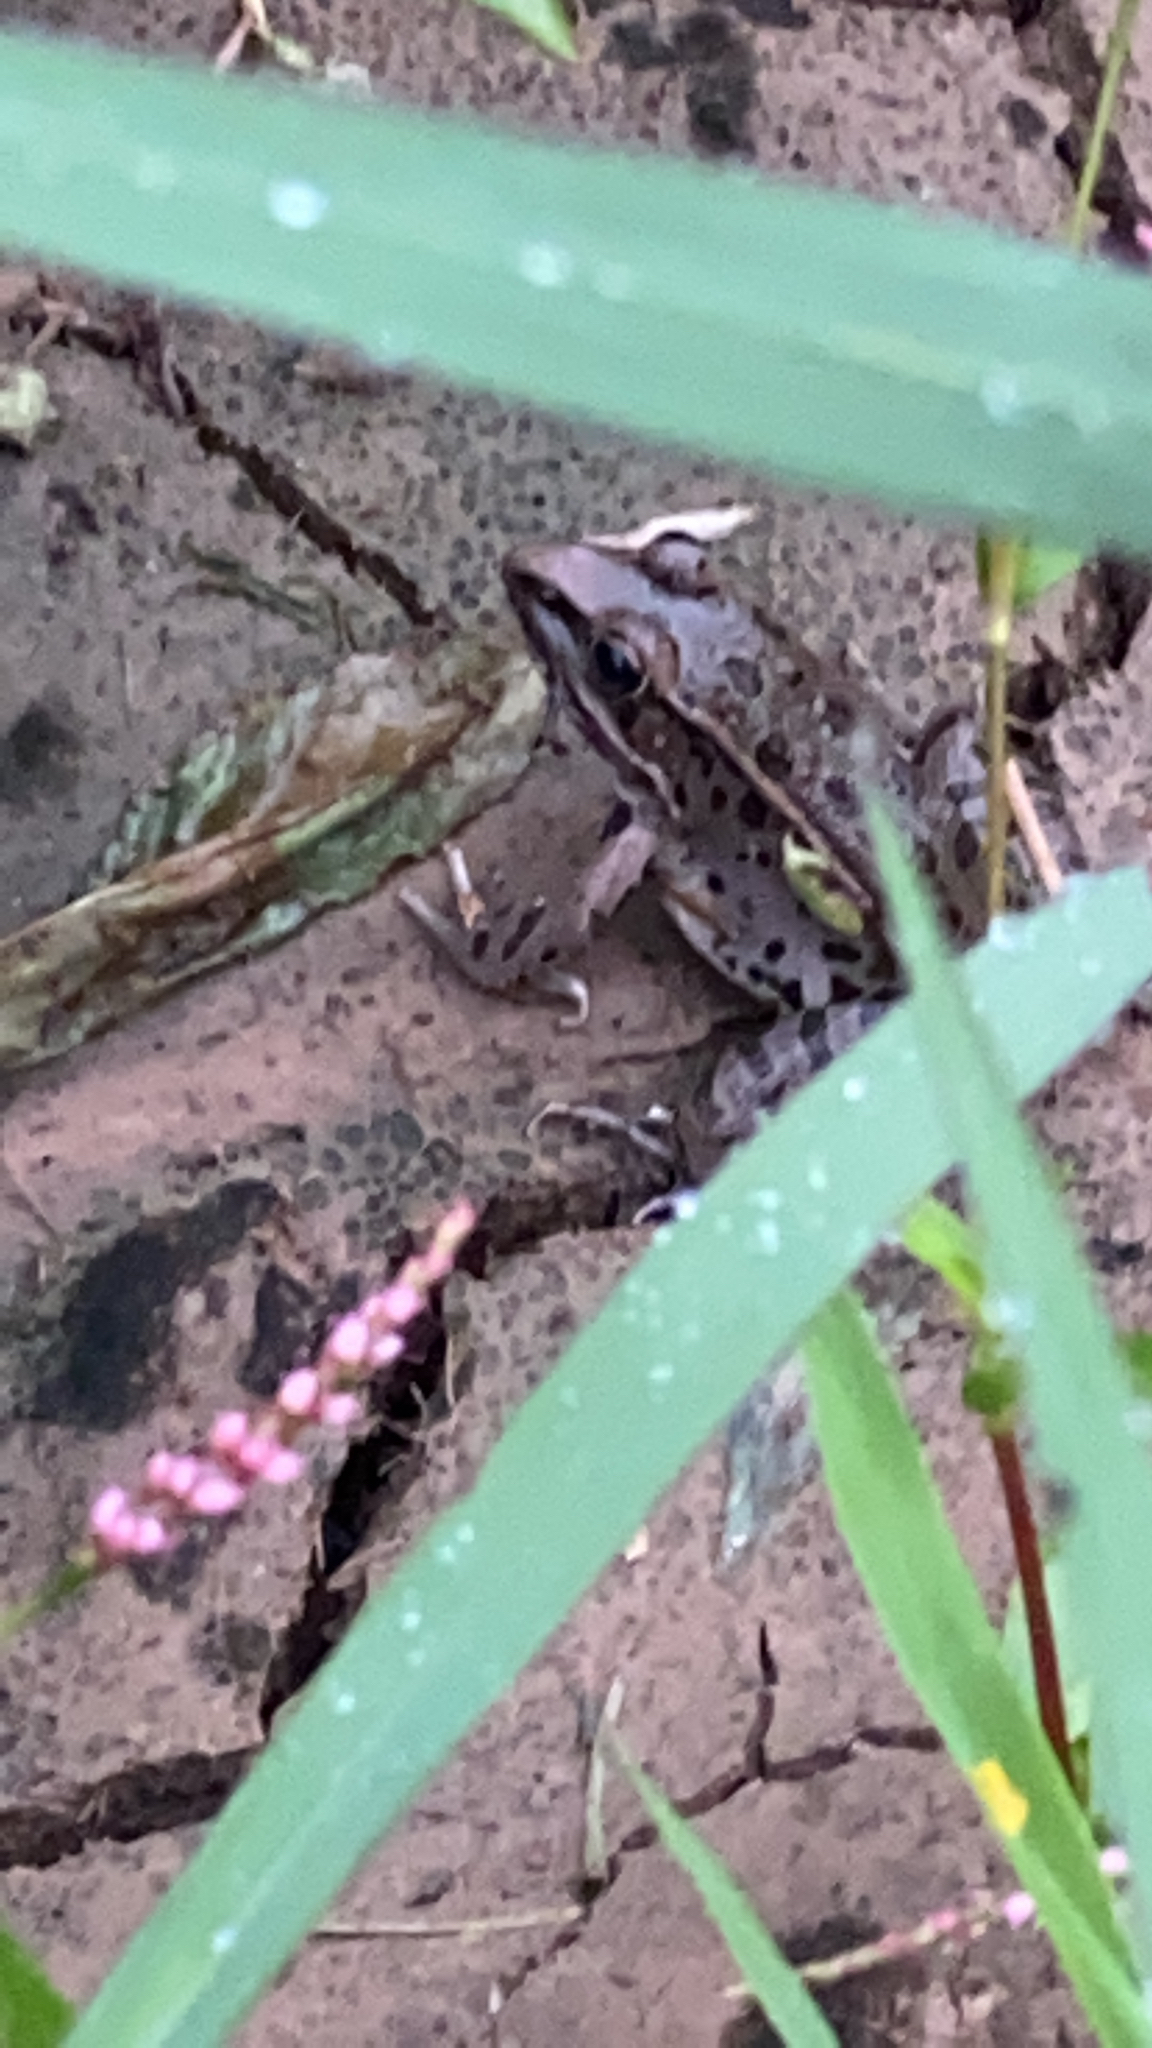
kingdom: Animalia
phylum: Chordata
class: Amphibia
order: Anura
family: Ranidae
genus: Lithobates
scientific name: Lithobates sphenocephalus
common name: Southern leopard frog
